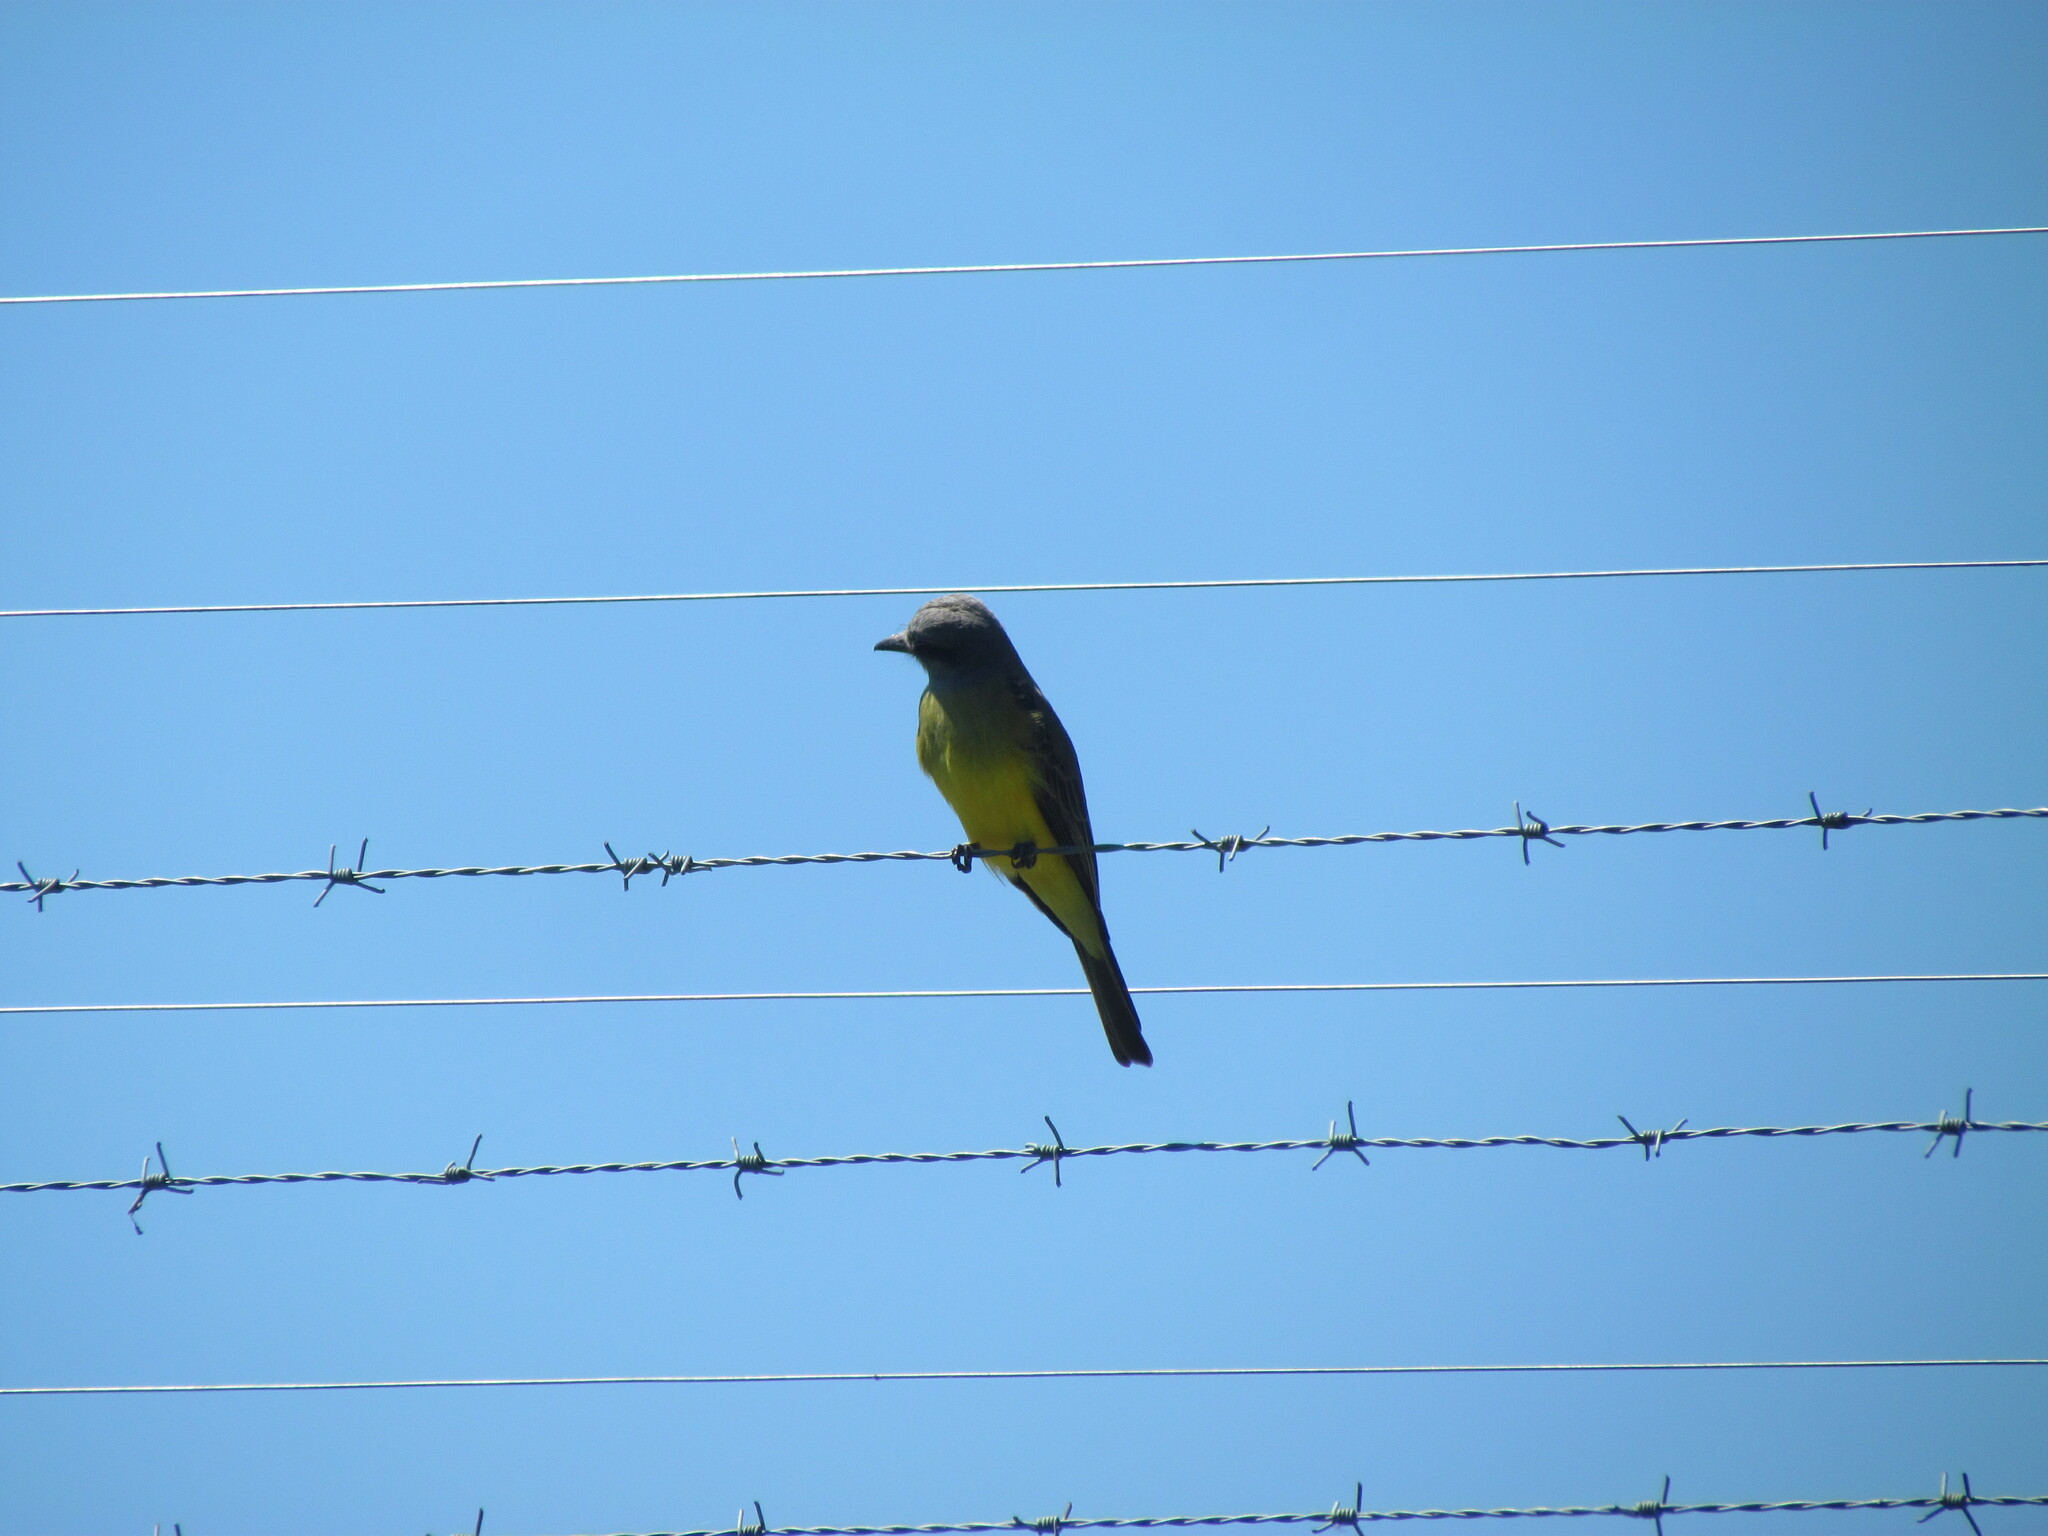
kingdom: Animalia
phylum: Chordata
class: Aves
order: Passeriformes
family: Tyrannidae
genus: Tyrannus
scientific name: Tyrannus melancholicus
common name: Tropical kingbird
